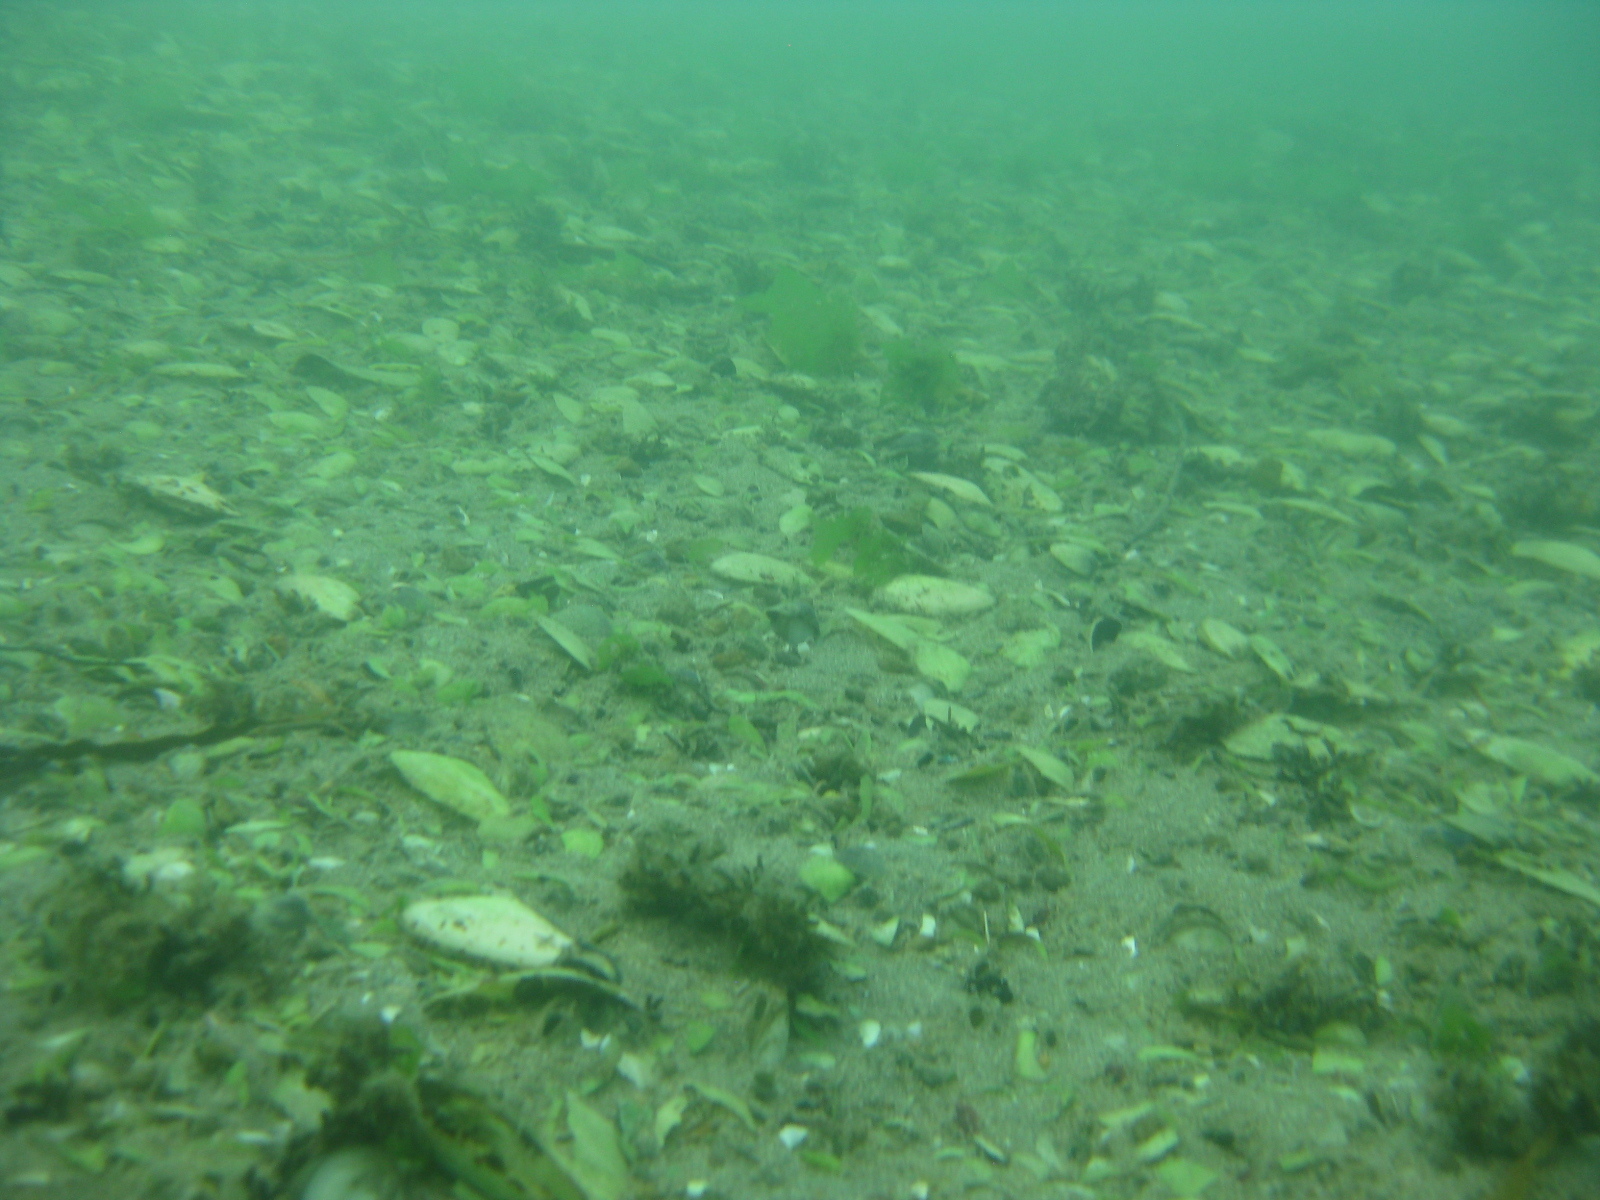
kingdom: Animalia
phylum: Mollusca
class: Bivalvia
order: Venerida
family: Mesodesmatidae
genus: Paphies
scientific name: Paphies australis
